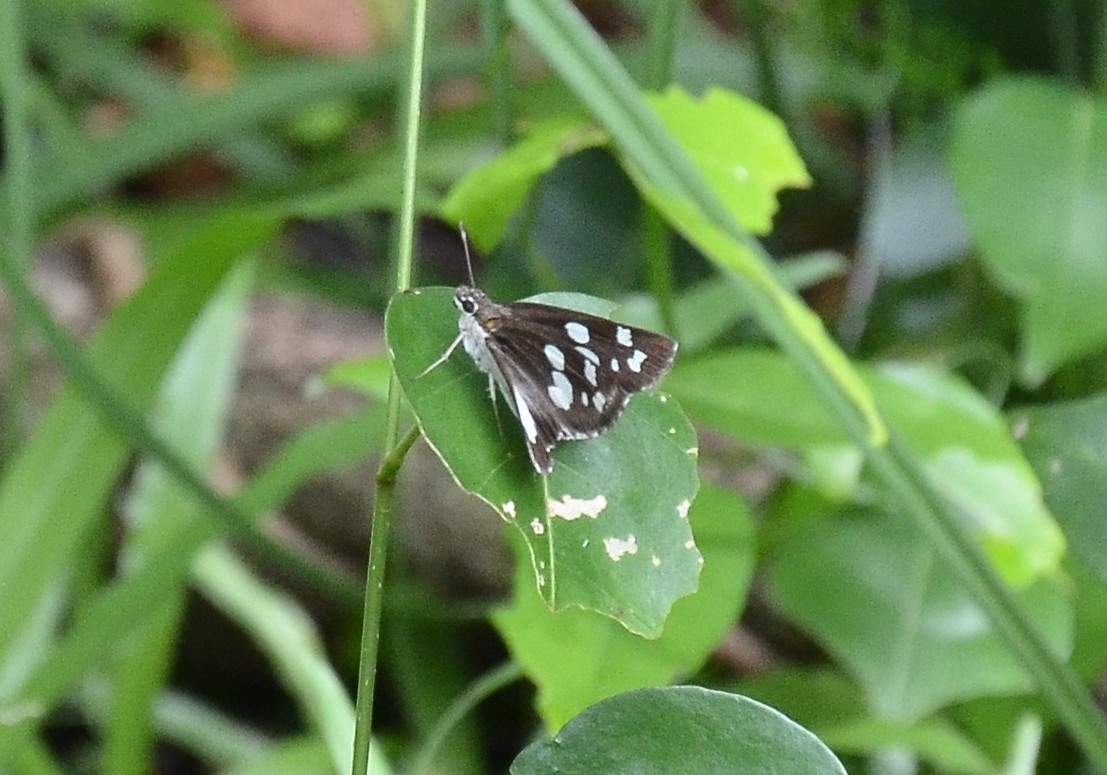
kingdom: Animalia
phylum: Arthropoda
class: Insecta
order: Lepidoptera
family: Hesperiidae
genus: Udaspes
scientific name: Udaspes folus
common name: Grass demon
